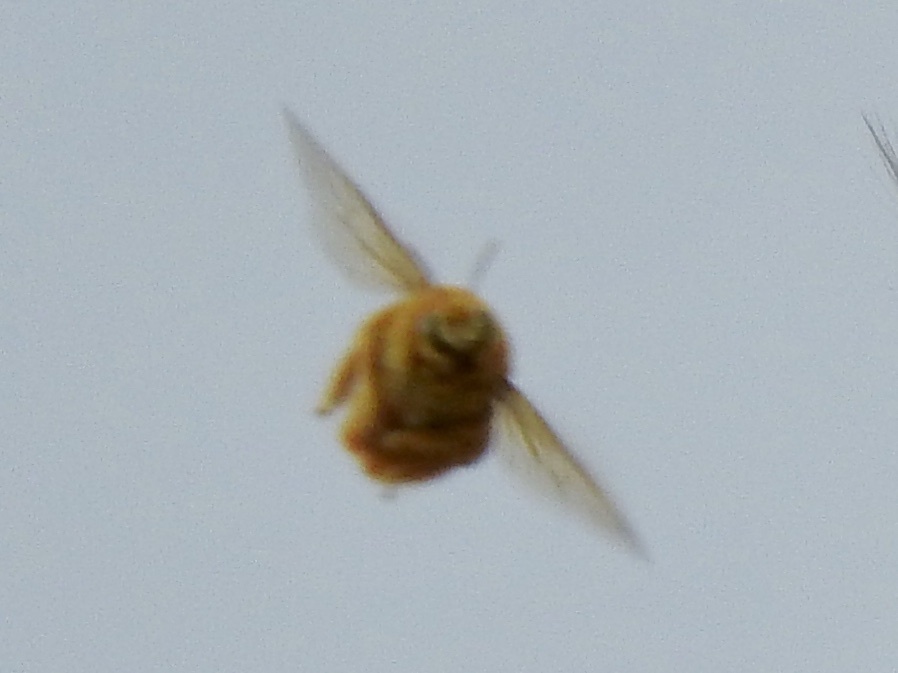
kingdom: Animalia
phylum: Arthropoda
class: Insecta
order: Hymenoptera
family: Apidae
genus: Xylocopa
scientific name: Xylocopa sonorina
